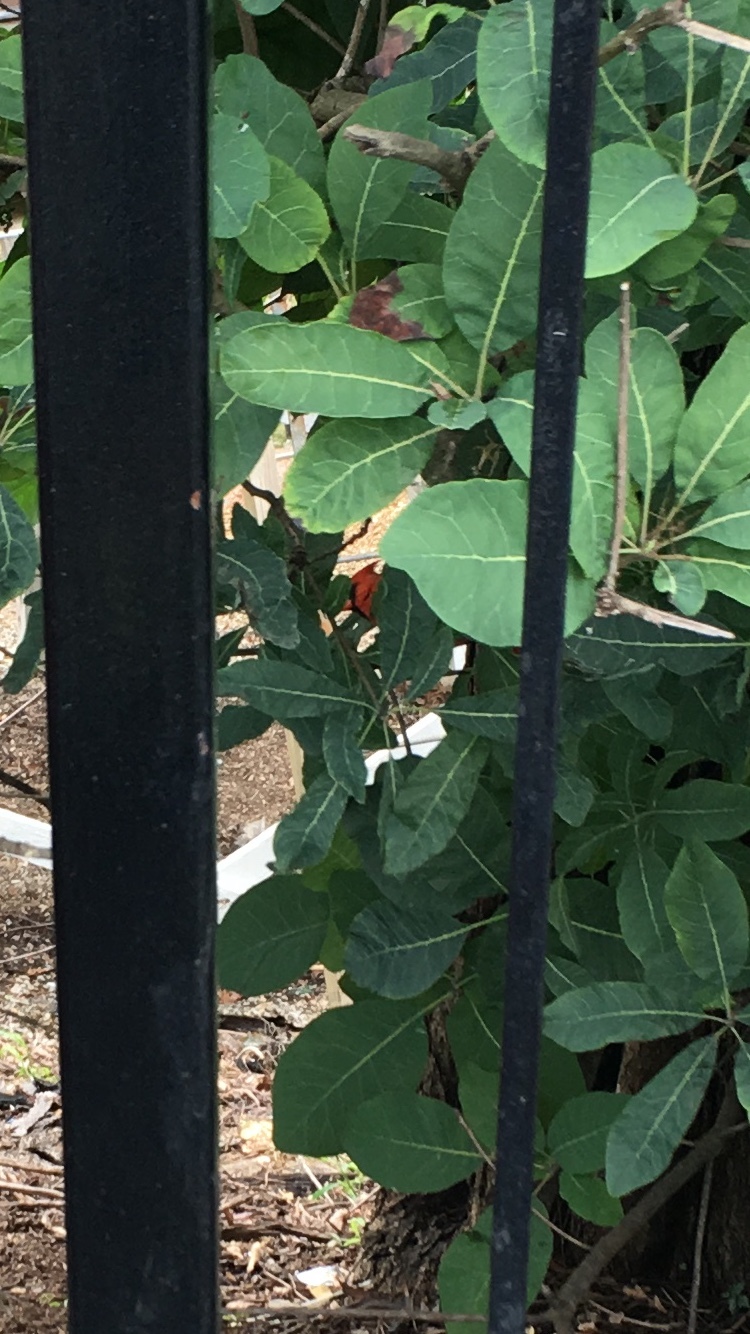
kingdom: Animalia
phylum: Chordata
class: Aves
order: Passeriformes
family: Cardinalidae
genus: Cardinalis
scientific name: Cardinalis cardinalis
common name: Northern cardinal
